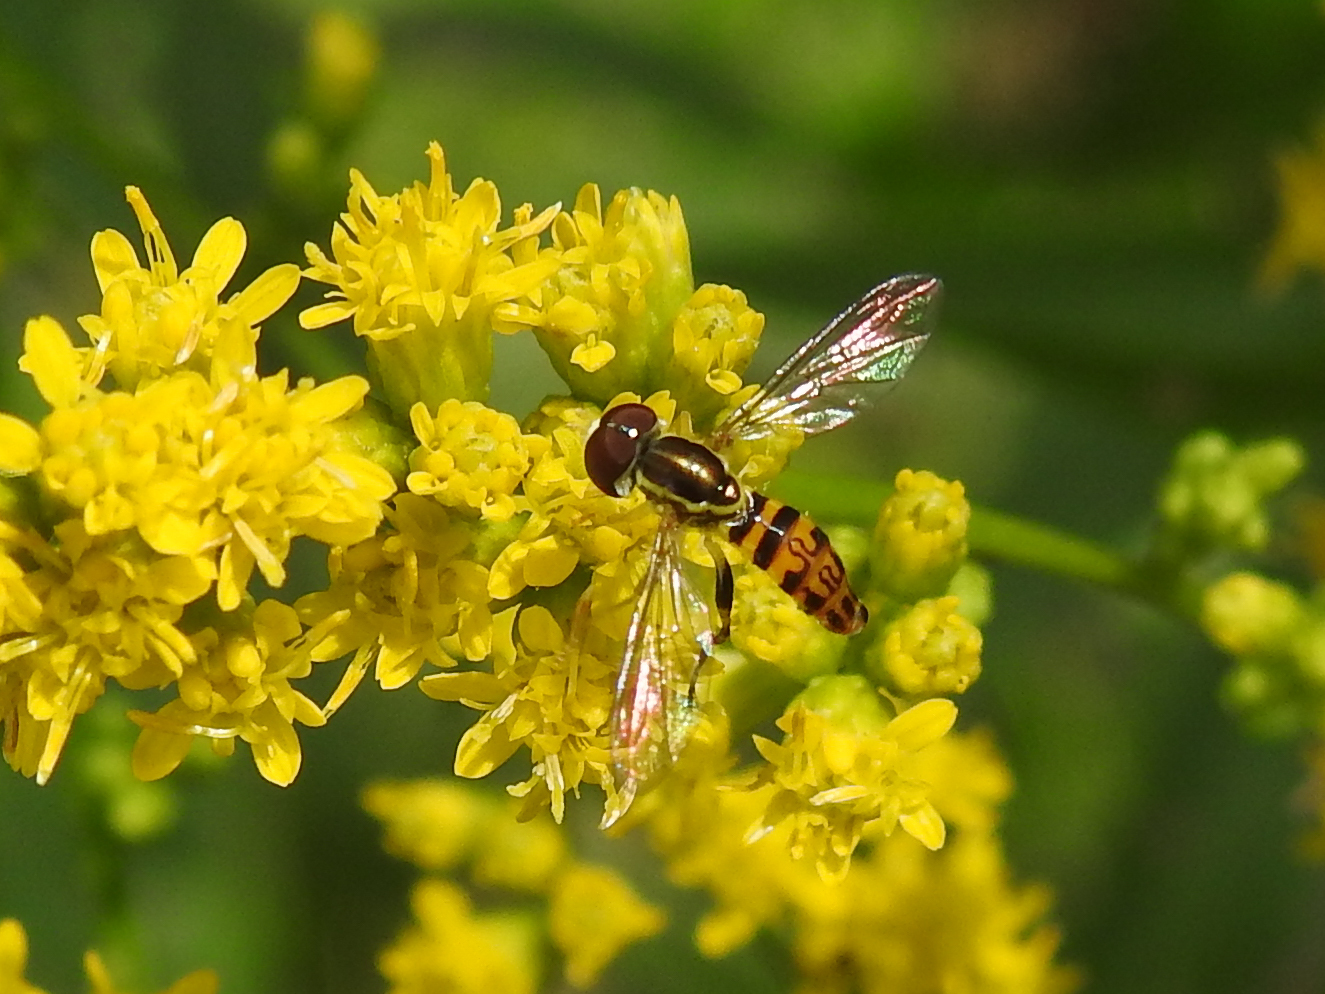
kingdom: Animalia
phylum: Arthropoda
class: Insecta
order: Diptera
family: Syrphidae
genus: Toxomerus
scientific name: Toxomerus geminatus
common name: Eastern calligrapher
